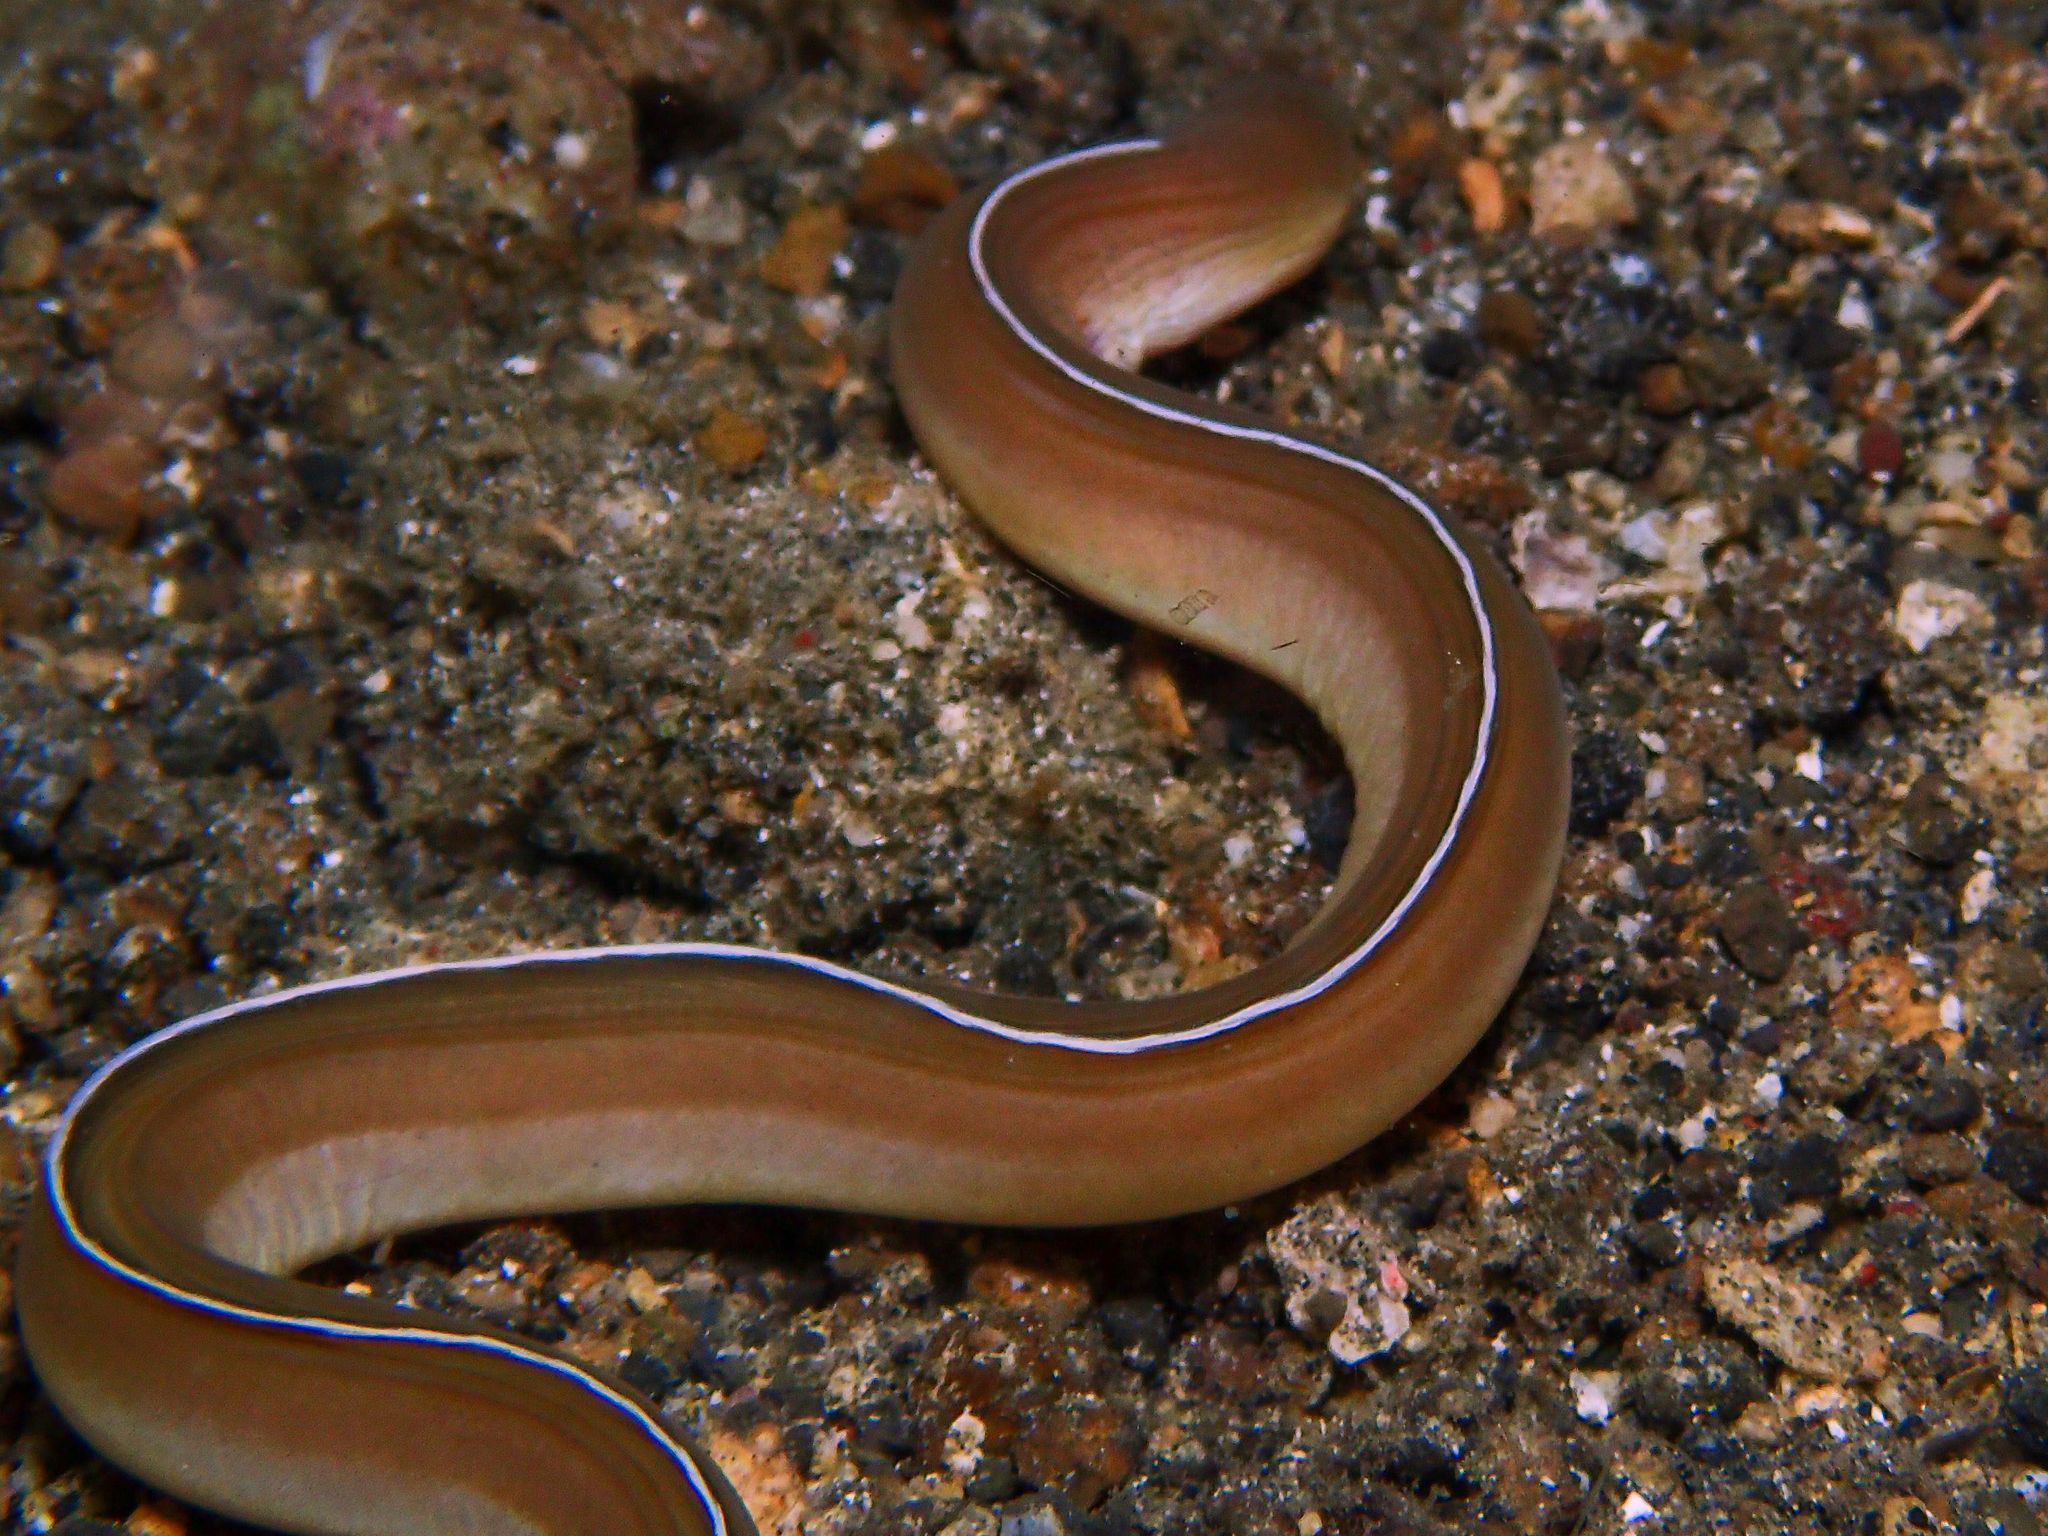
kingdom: Animalia
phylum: Chordata
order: Anguilliformes
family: Muraenidae
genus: Gymnothorax
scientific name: Gymnothorax albimarginatus
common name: Whitemargin moray
